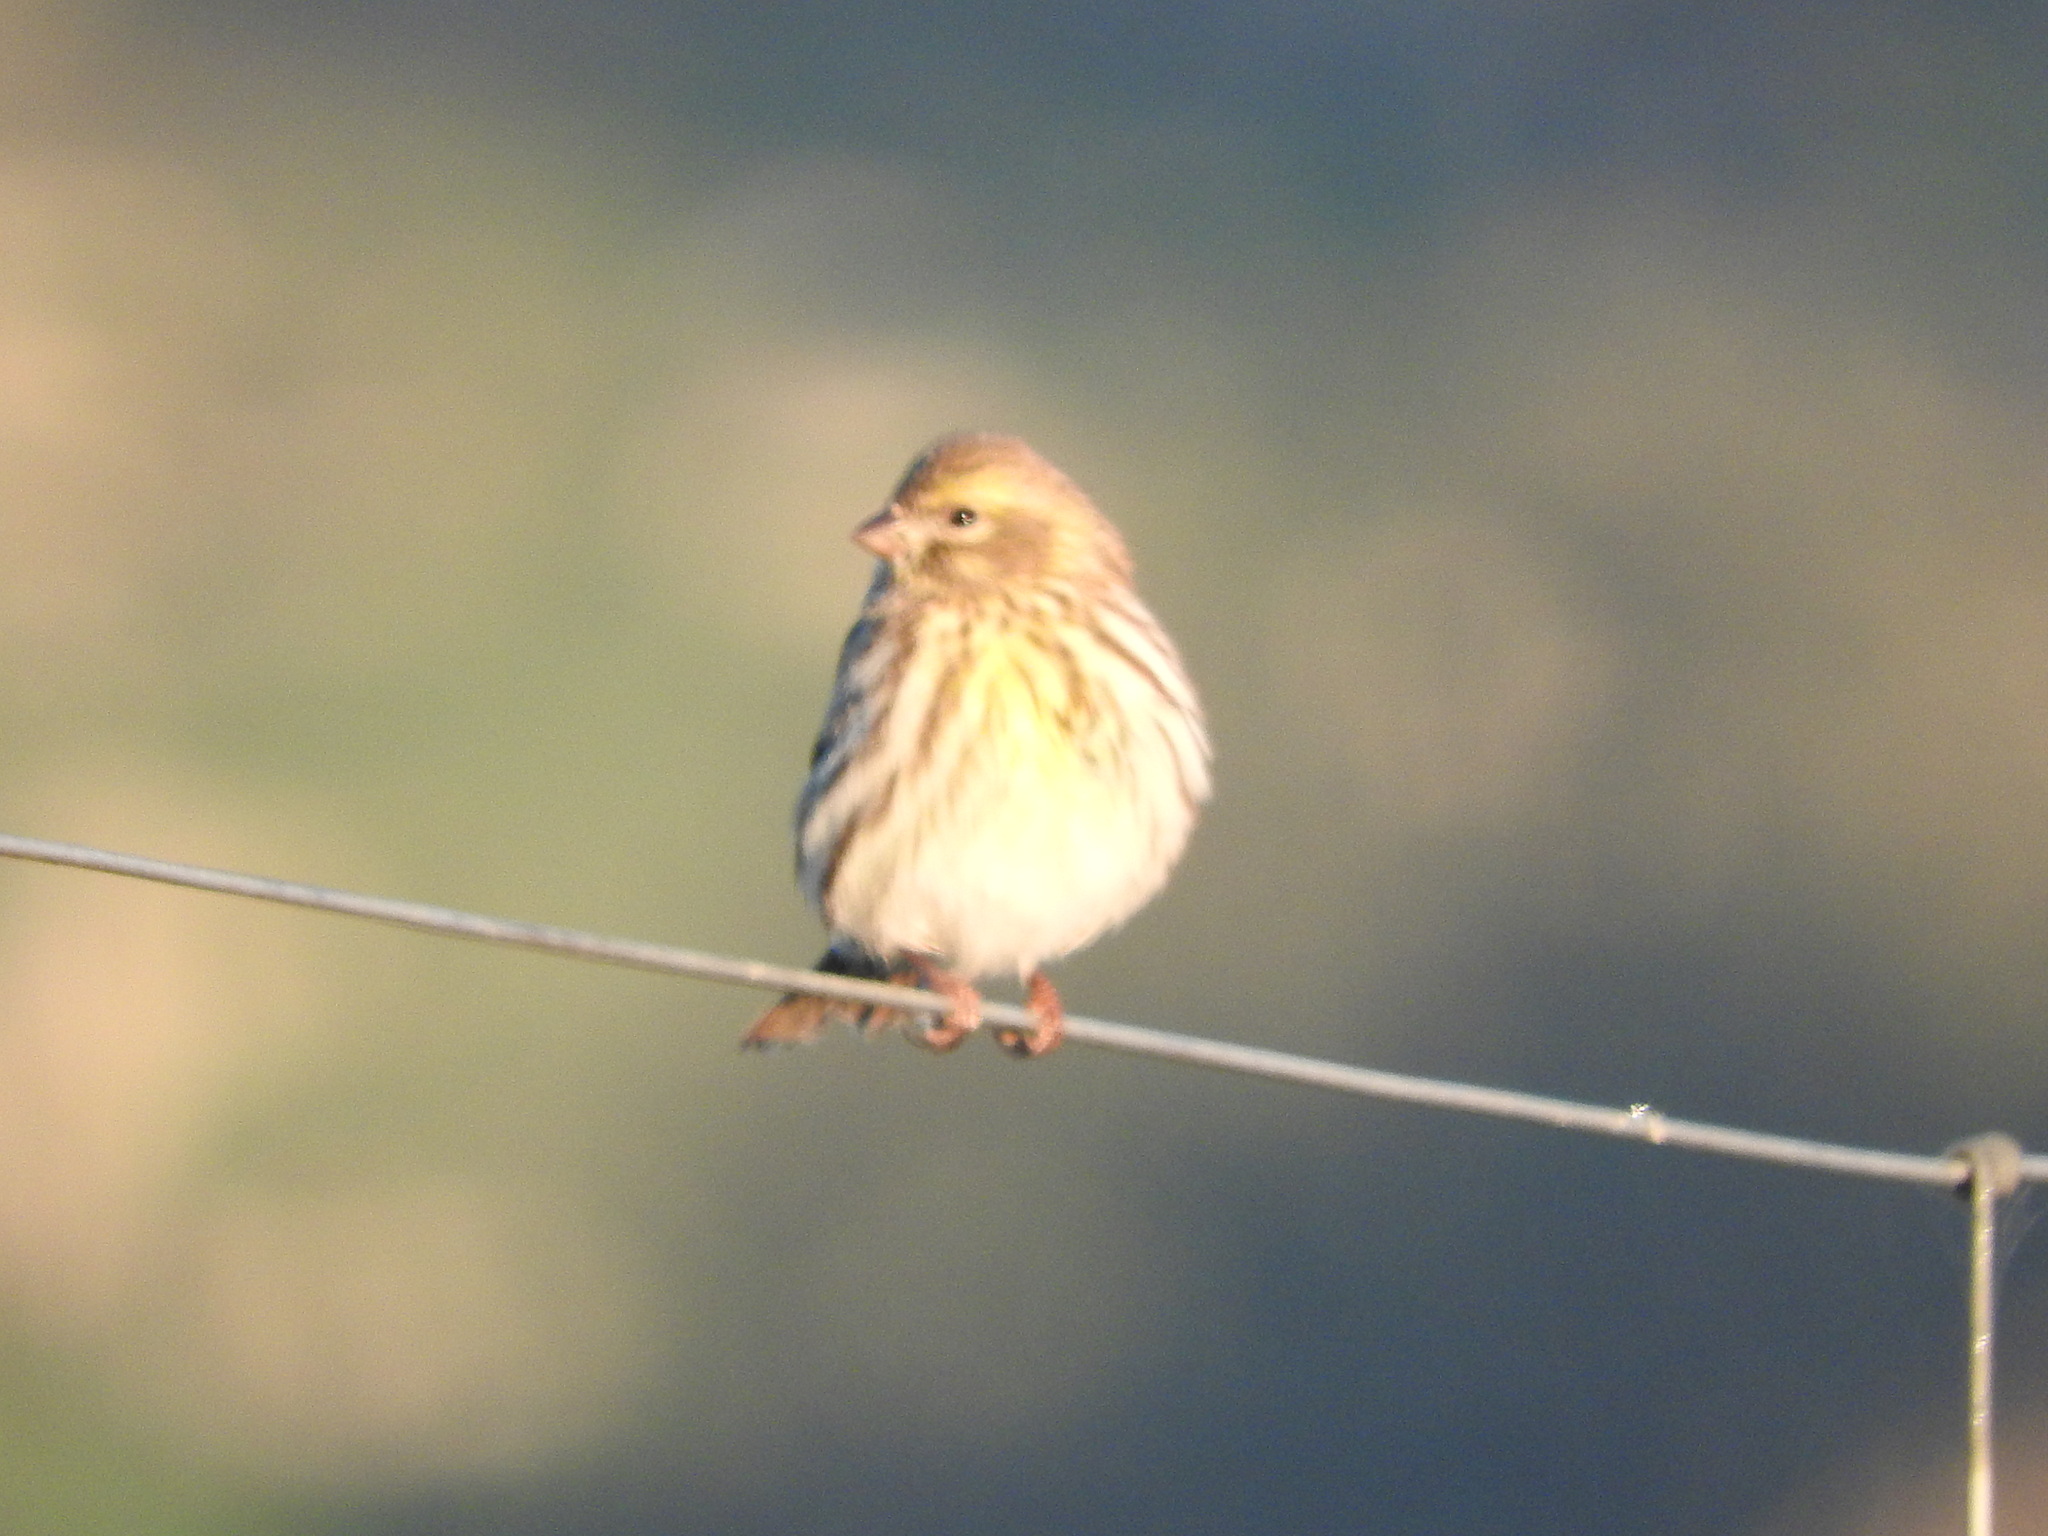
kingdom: Animalia
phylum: Chordata
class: Aves
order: Passeriformes
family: Fringillidae
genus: Serinus
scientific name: Serinus serinus
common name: European serin
